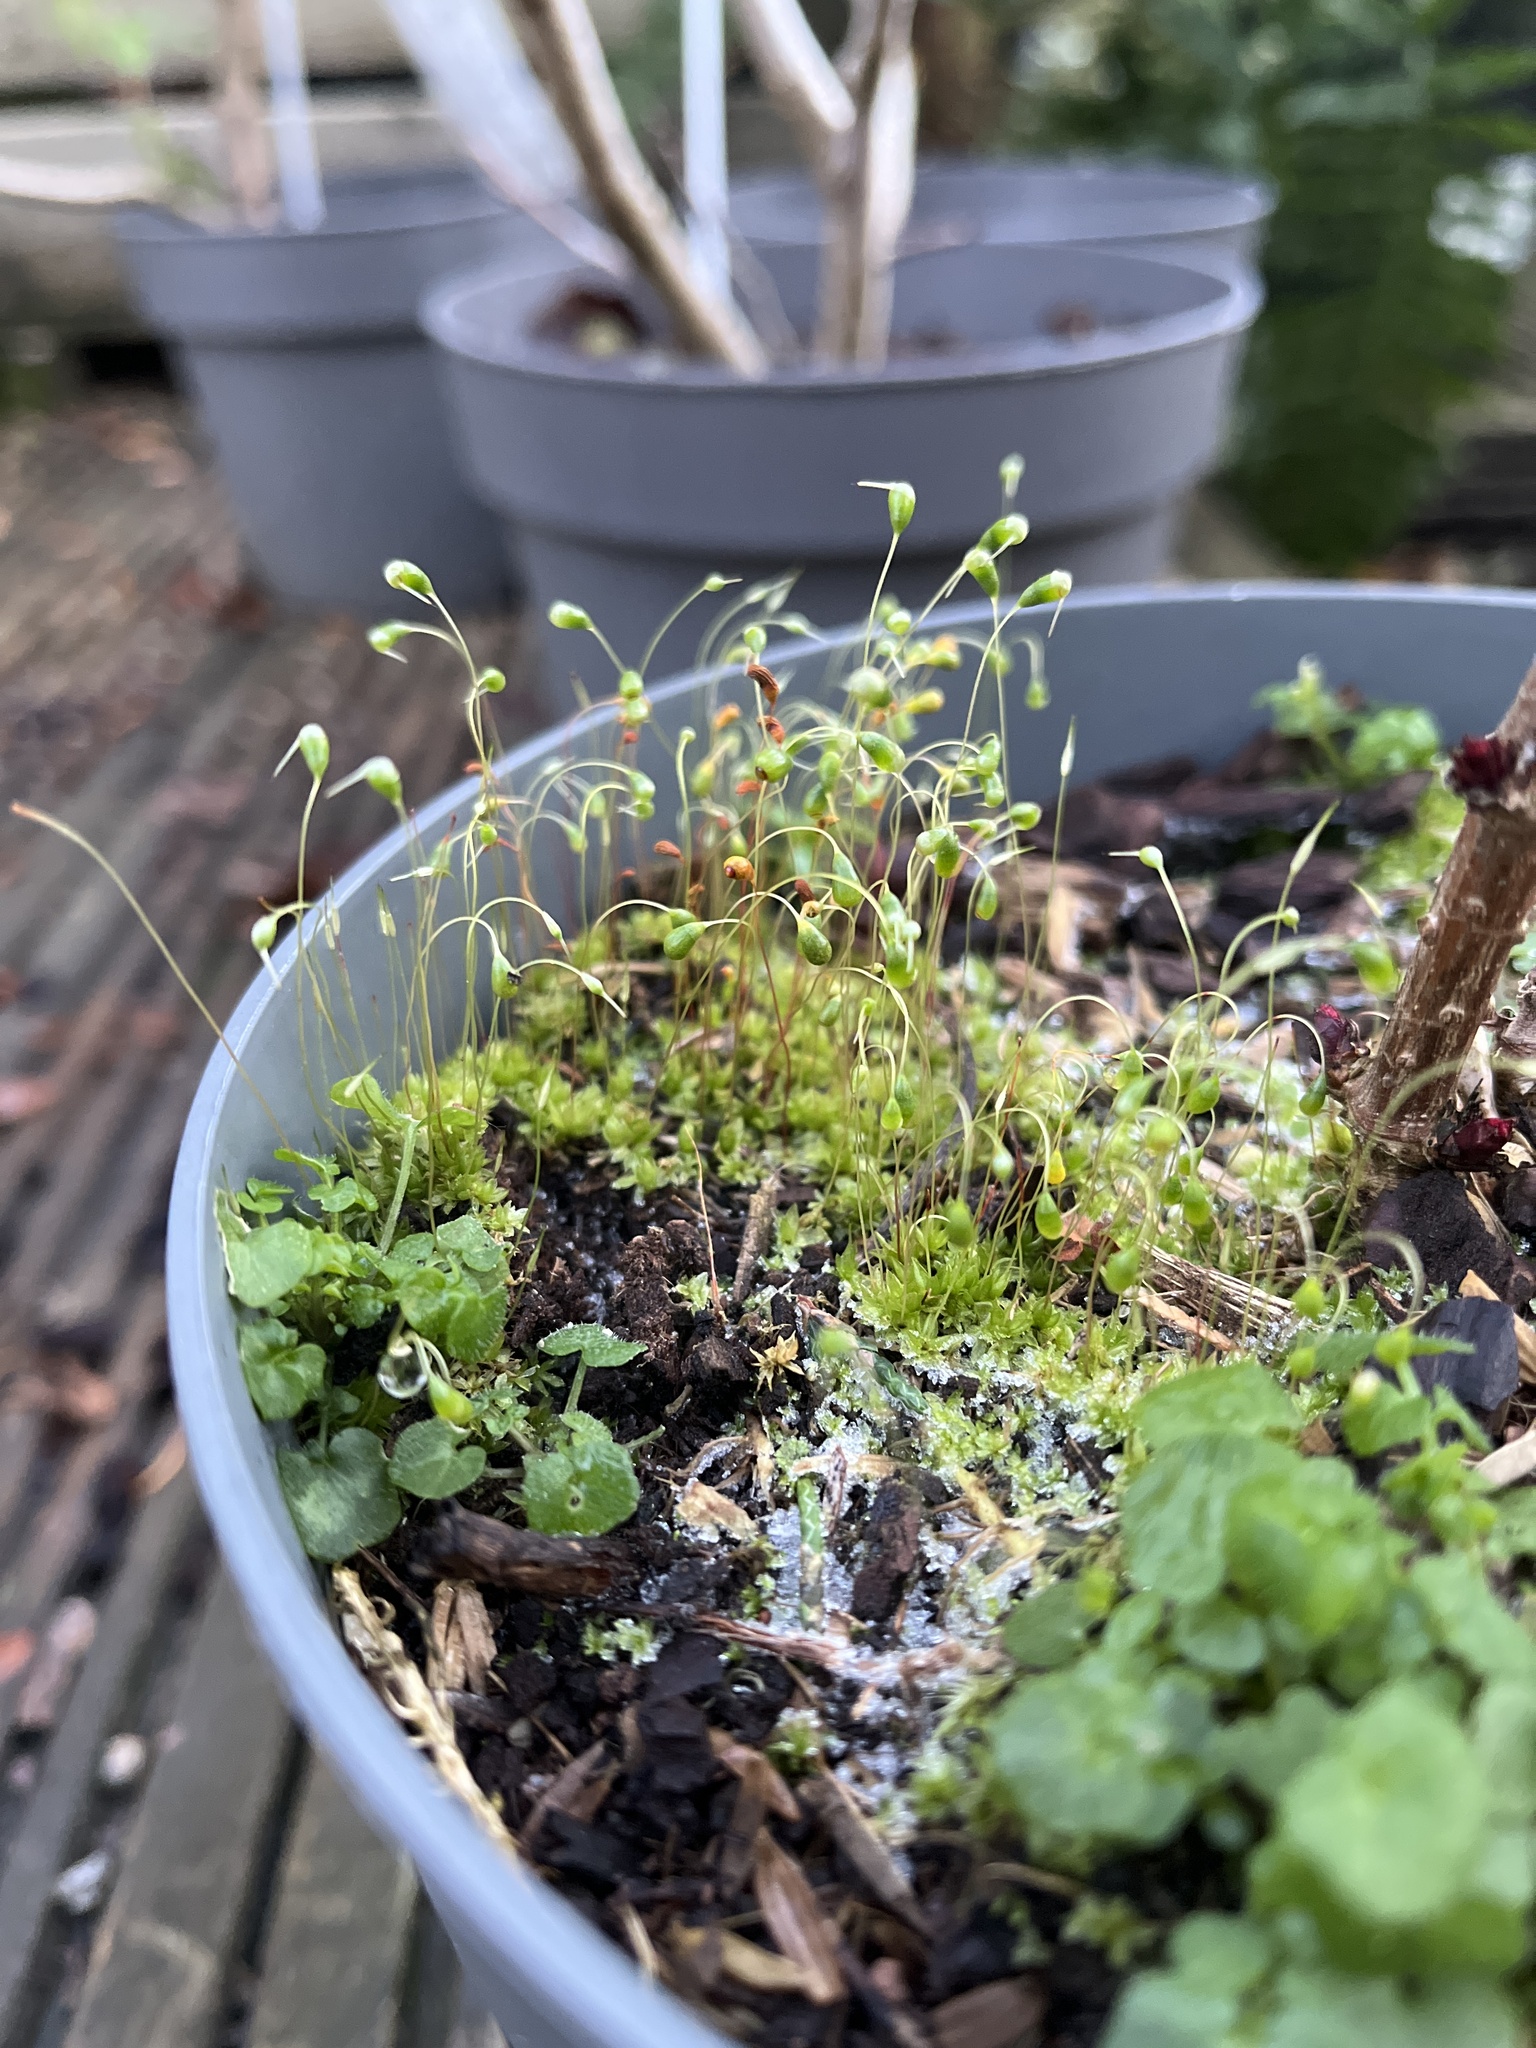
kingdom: Plantae
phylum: Bryophyta
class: Bryopsida
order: Funariales
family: Funariaceae
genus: Funaria
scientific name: Funaria hygrometrica
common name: Common cord moss
